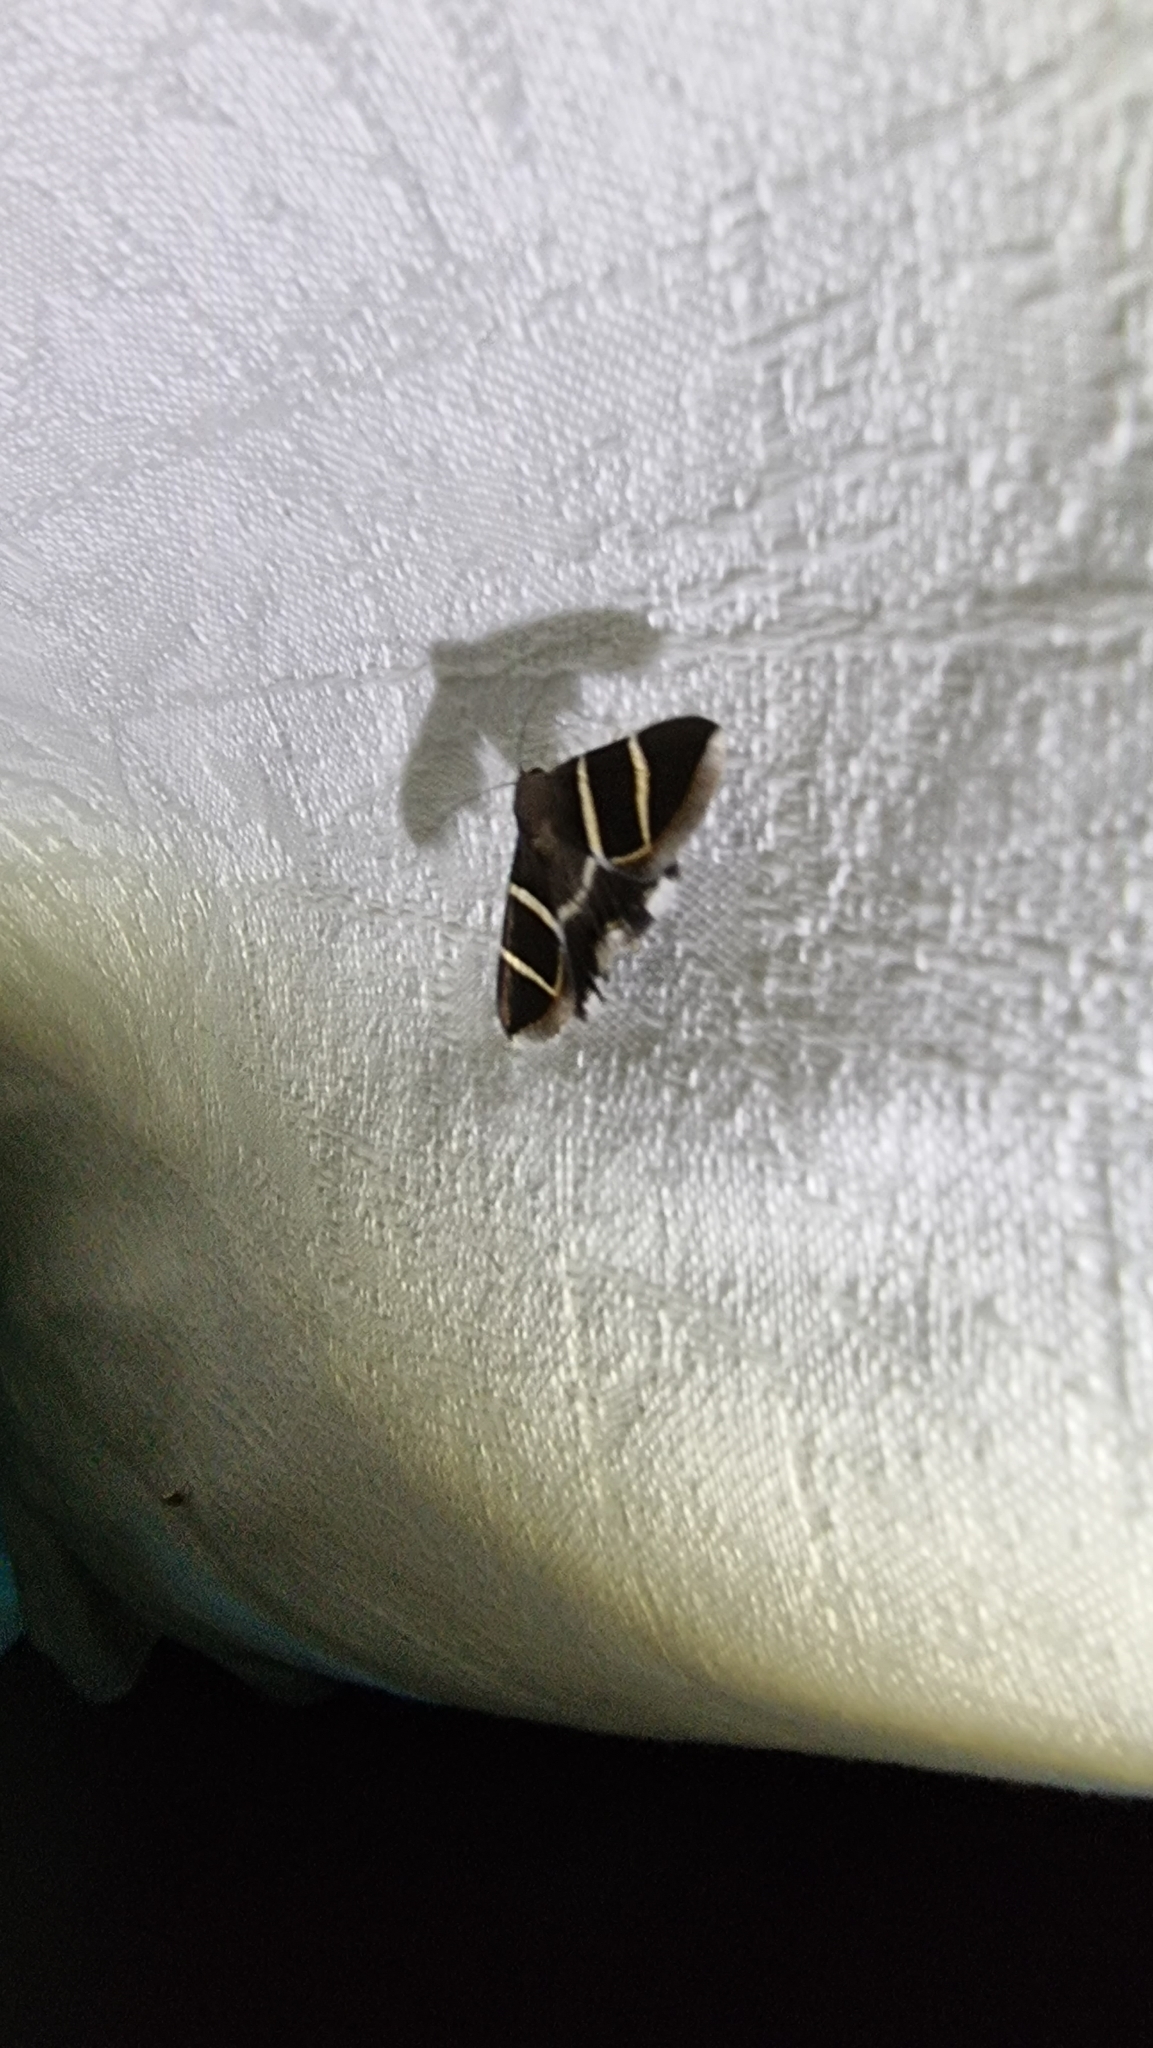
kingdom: Animalia
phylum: Arthropoda
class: Insecta
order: Lepidoptera
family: Erebidae
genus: Grammodes
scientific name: Grammodes justa
